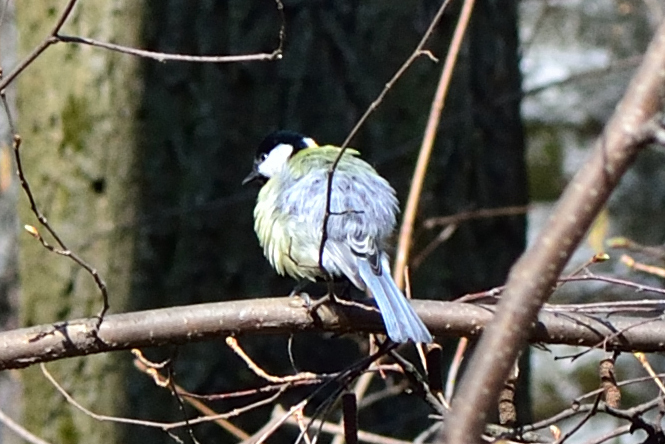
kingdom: Animalia
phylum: Chordata
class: Aves
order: Passeriformes
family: Paridae
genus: Parus
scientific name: Parus major
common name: Great tit
